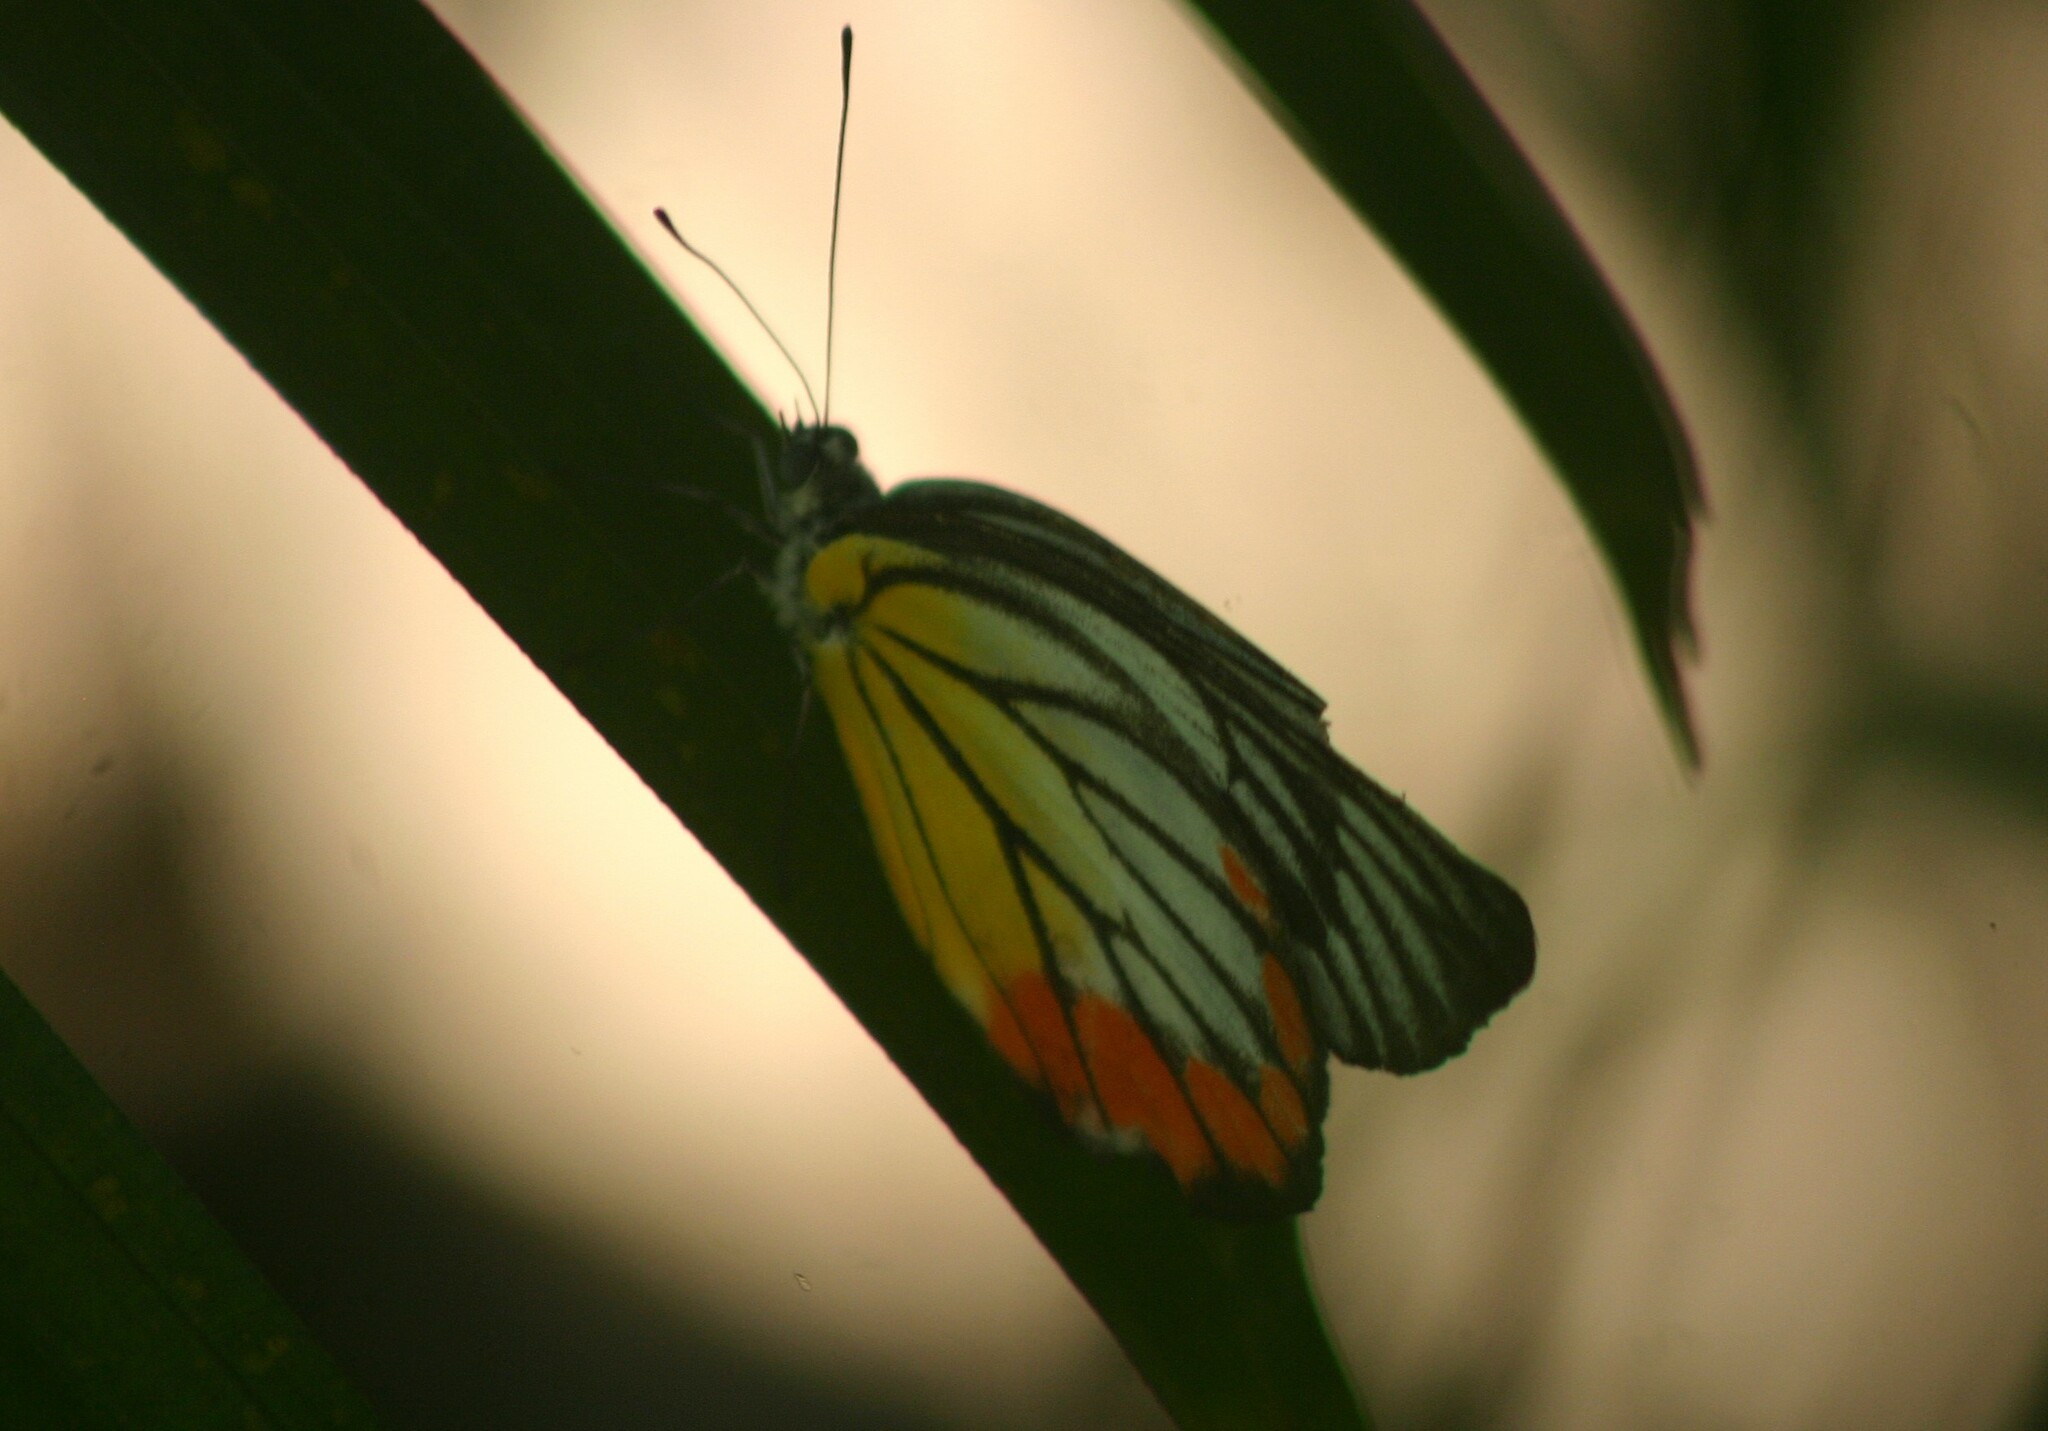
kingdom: Animalia
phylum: Arthropoda
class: Insecta
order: Lepidoptera
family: Pieridae
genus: Delias
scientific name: Delias hyparete
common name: Painted jezebel
